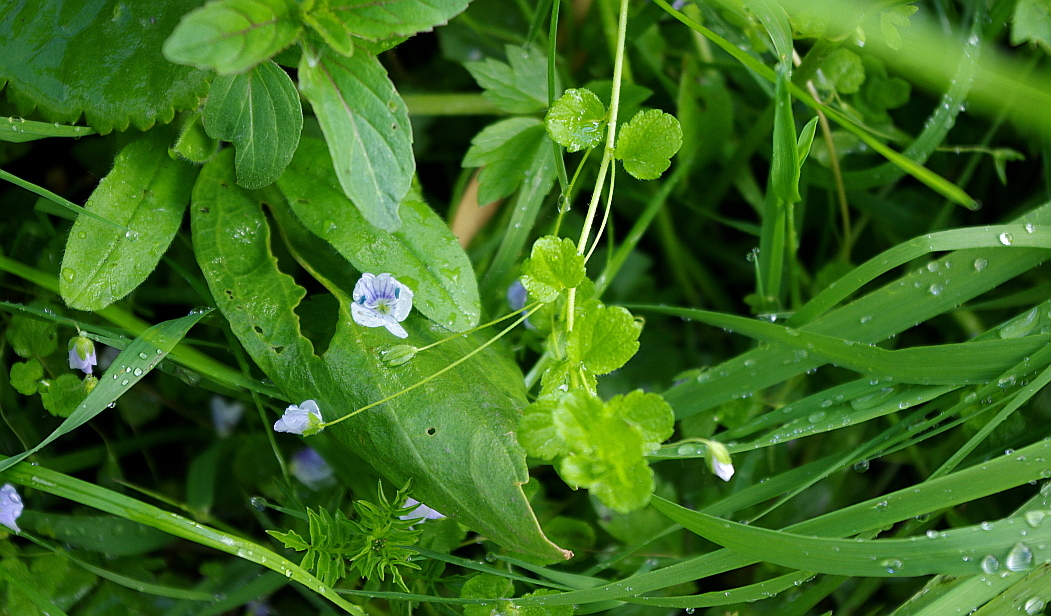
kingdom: Plantae
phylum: Tracheophyta
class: Magnoliopsida
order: Lamiales
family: Plantaginaceae
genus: Veronica
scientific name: Veronica filiformis
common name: Slender speedwell
